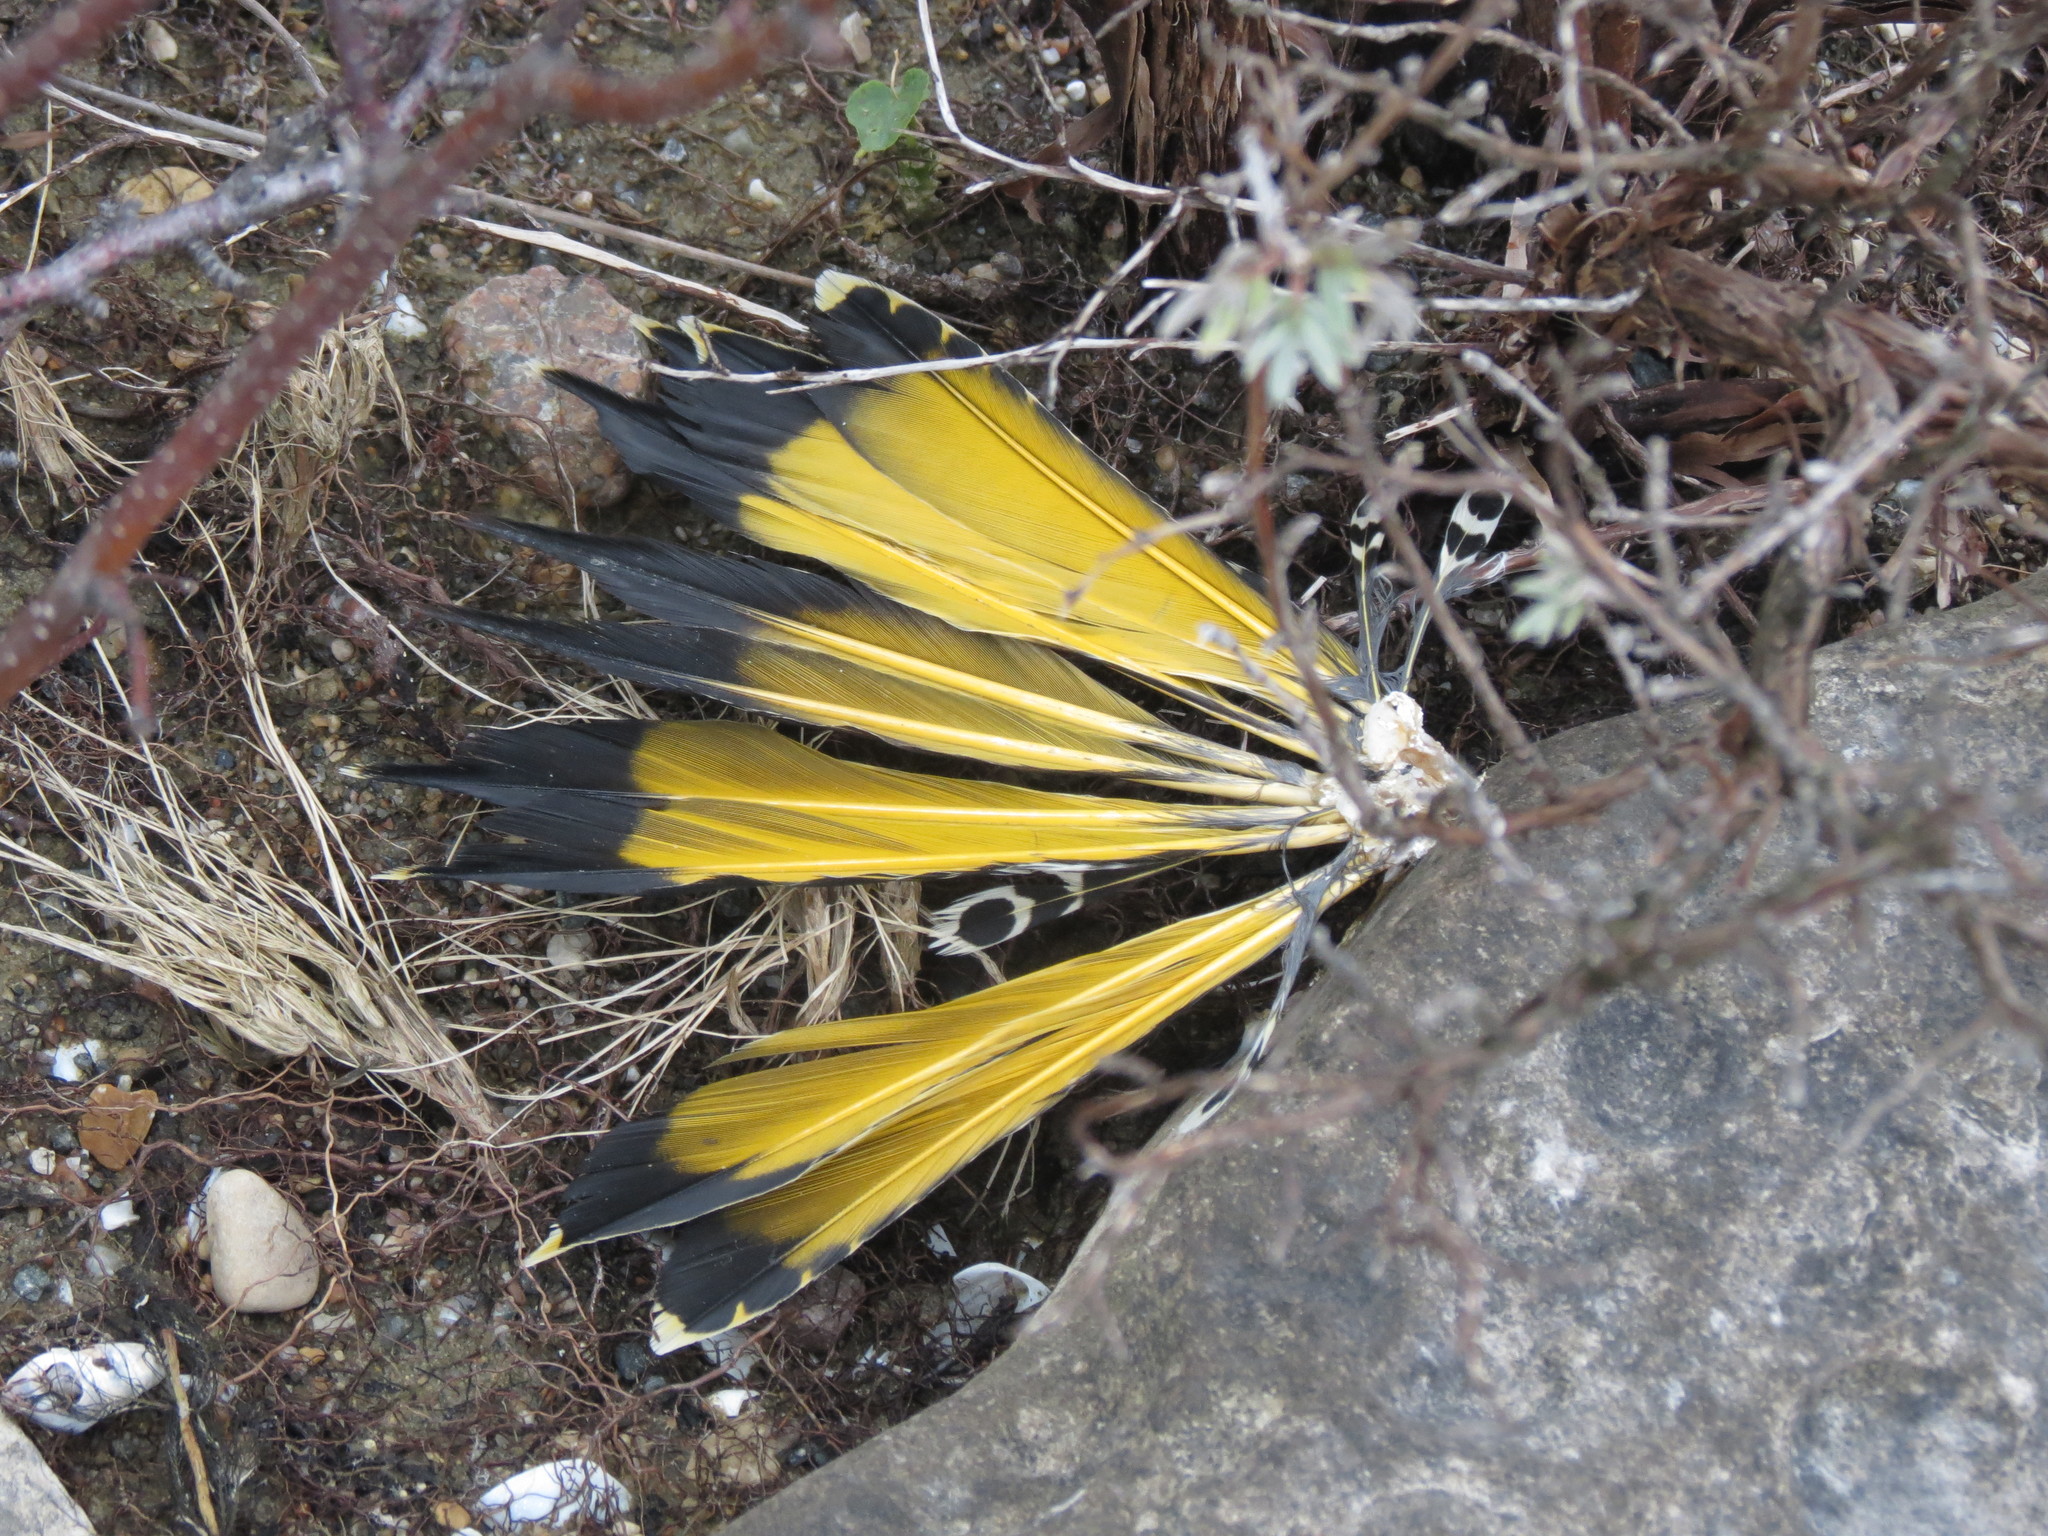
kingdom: Animalia
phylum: Chordata
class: Aves
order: Piciformes
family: Picidae
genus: Colaptes
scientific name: Colaptes auratus
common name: Northern flicker
